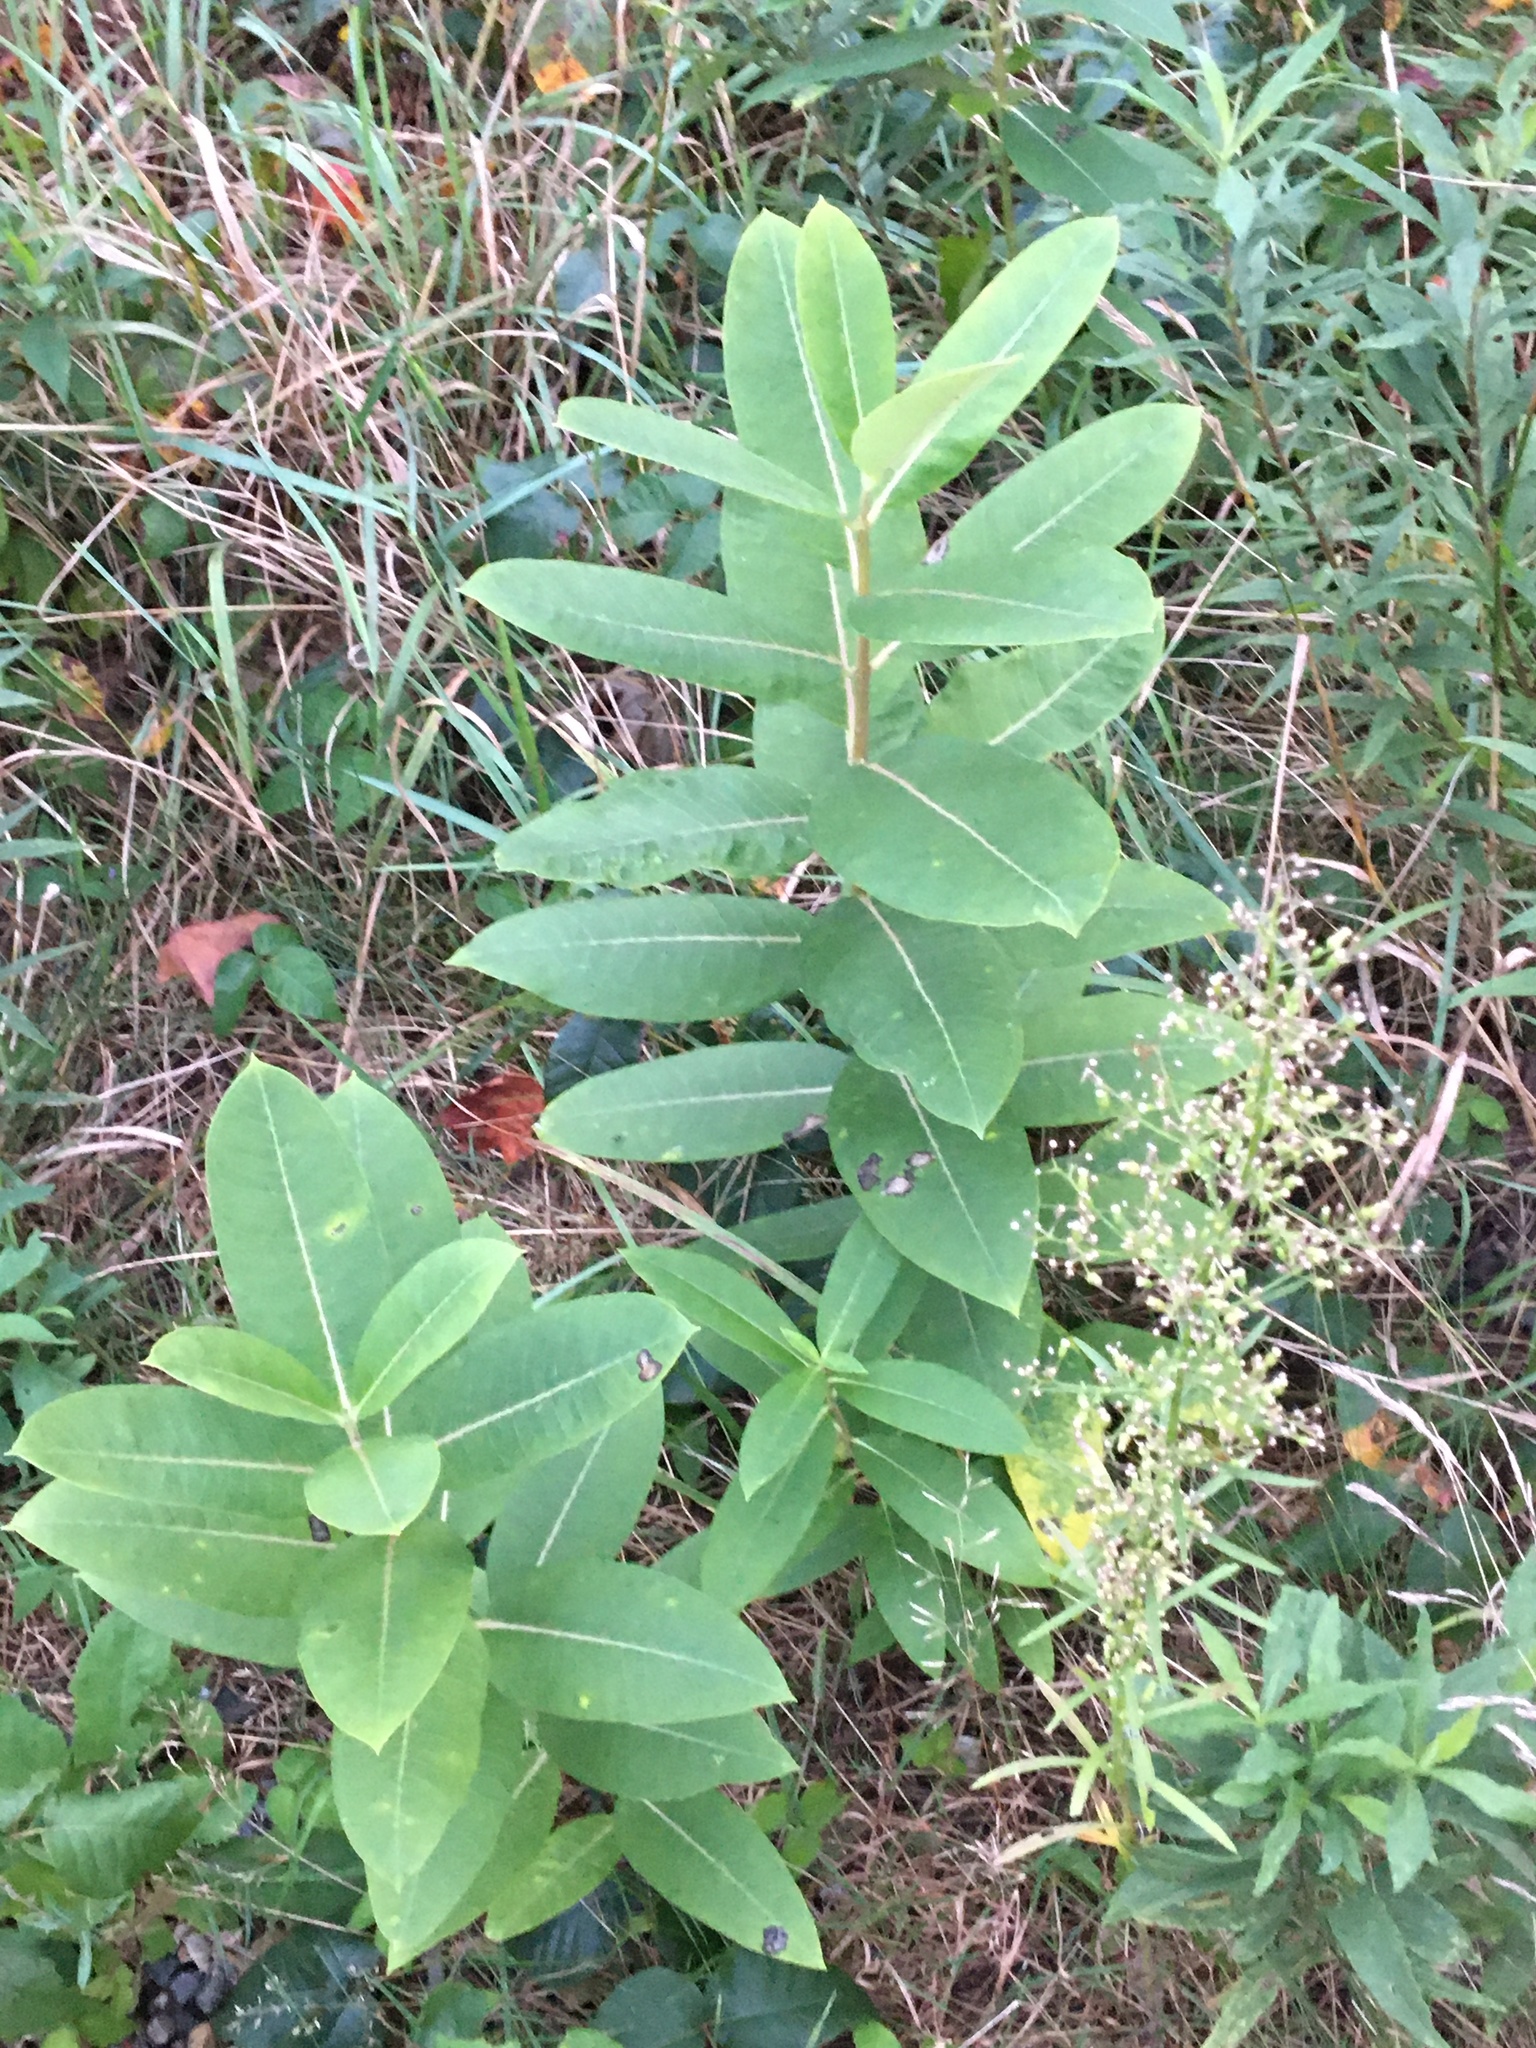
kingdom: Plantae
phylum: Tracheophyta
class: Magnoliopsida
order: Gentianales
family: Apocynaceae
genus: Asclepias
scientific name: Asclepias syriaca
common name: Common milkweed
